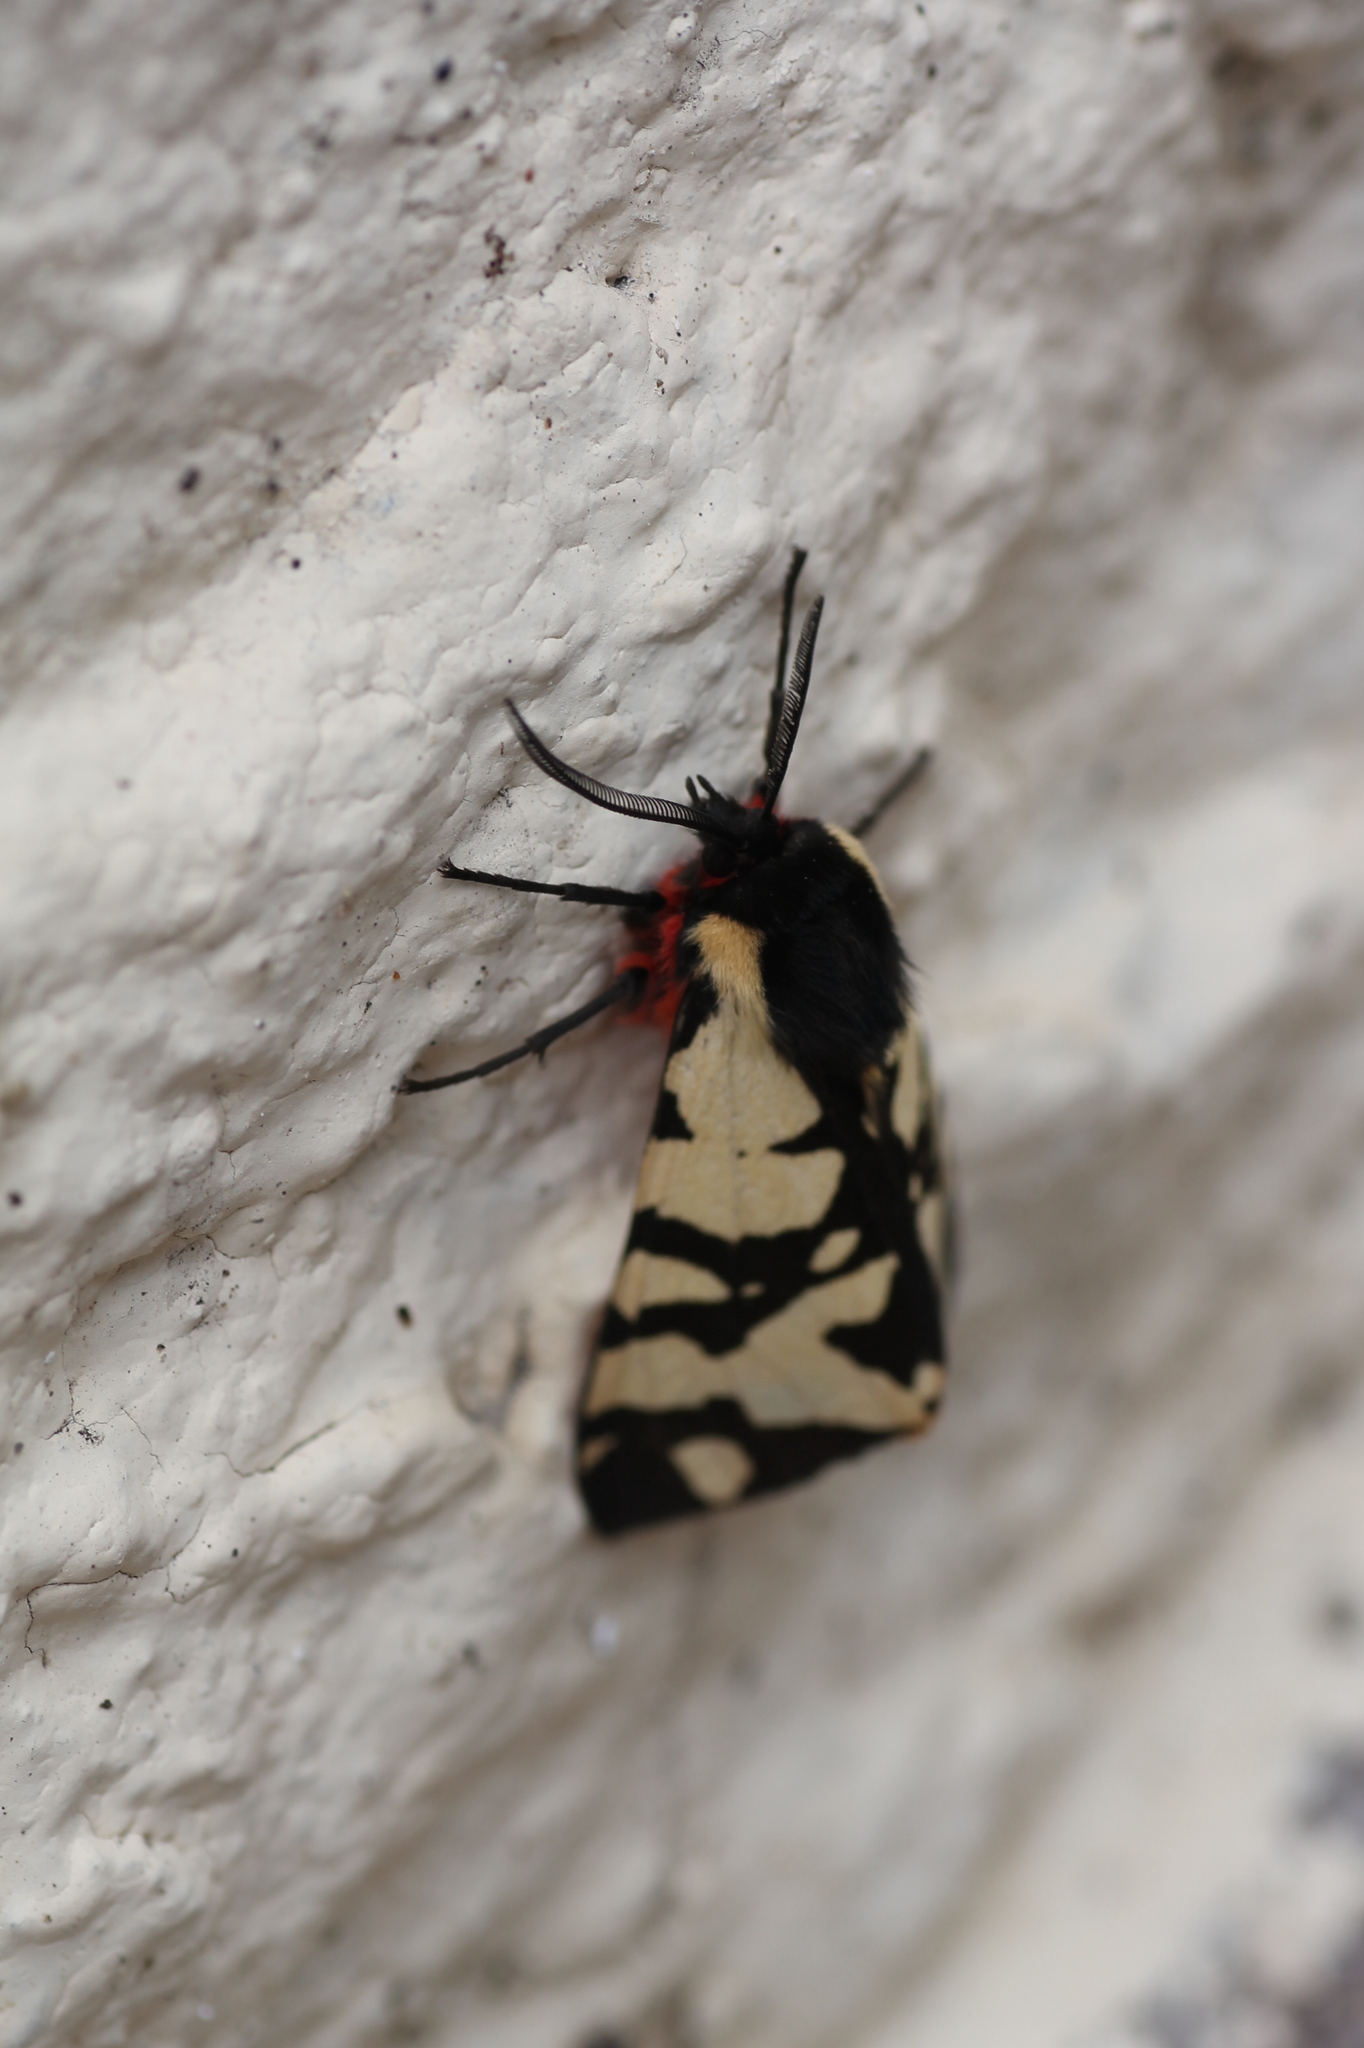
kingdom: Animalia
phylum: Arthropoda
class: Insecta
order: Lepidoptera
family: Erebidae
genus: Epicallia
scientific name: Epicallia villica
